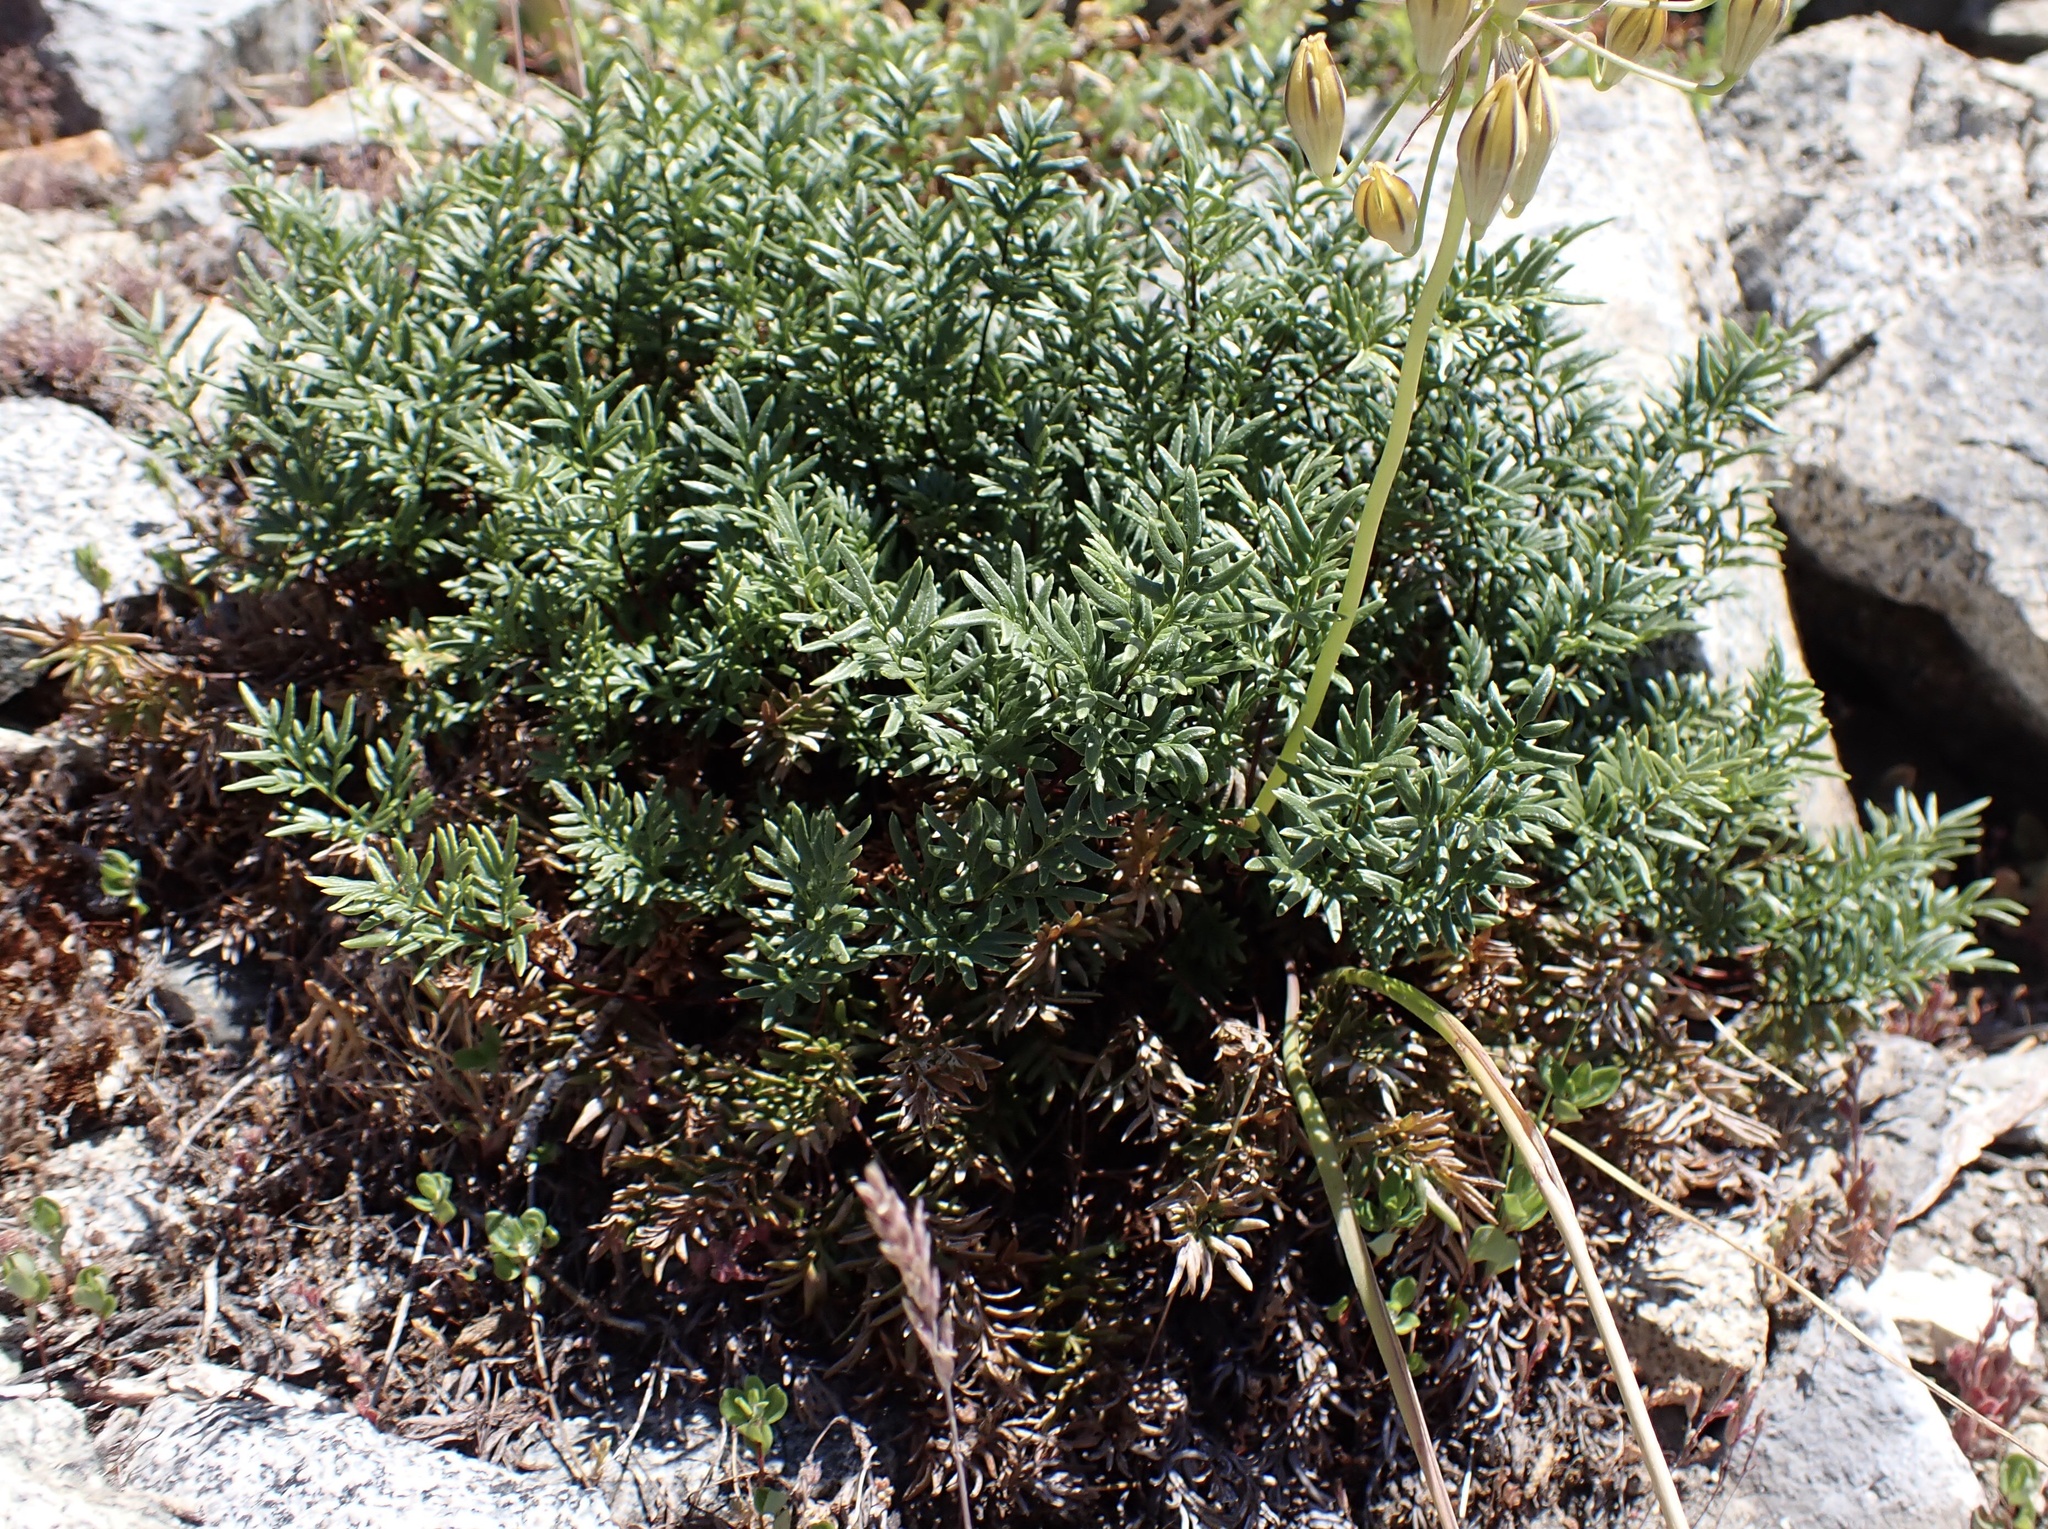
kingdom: Plantae
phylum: Tracheophyta
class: Polypodiopsida
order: Polypodiales
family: Pteridaceae
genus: Aspidotis
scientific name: Aspidotis densa
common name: Indian's dream
